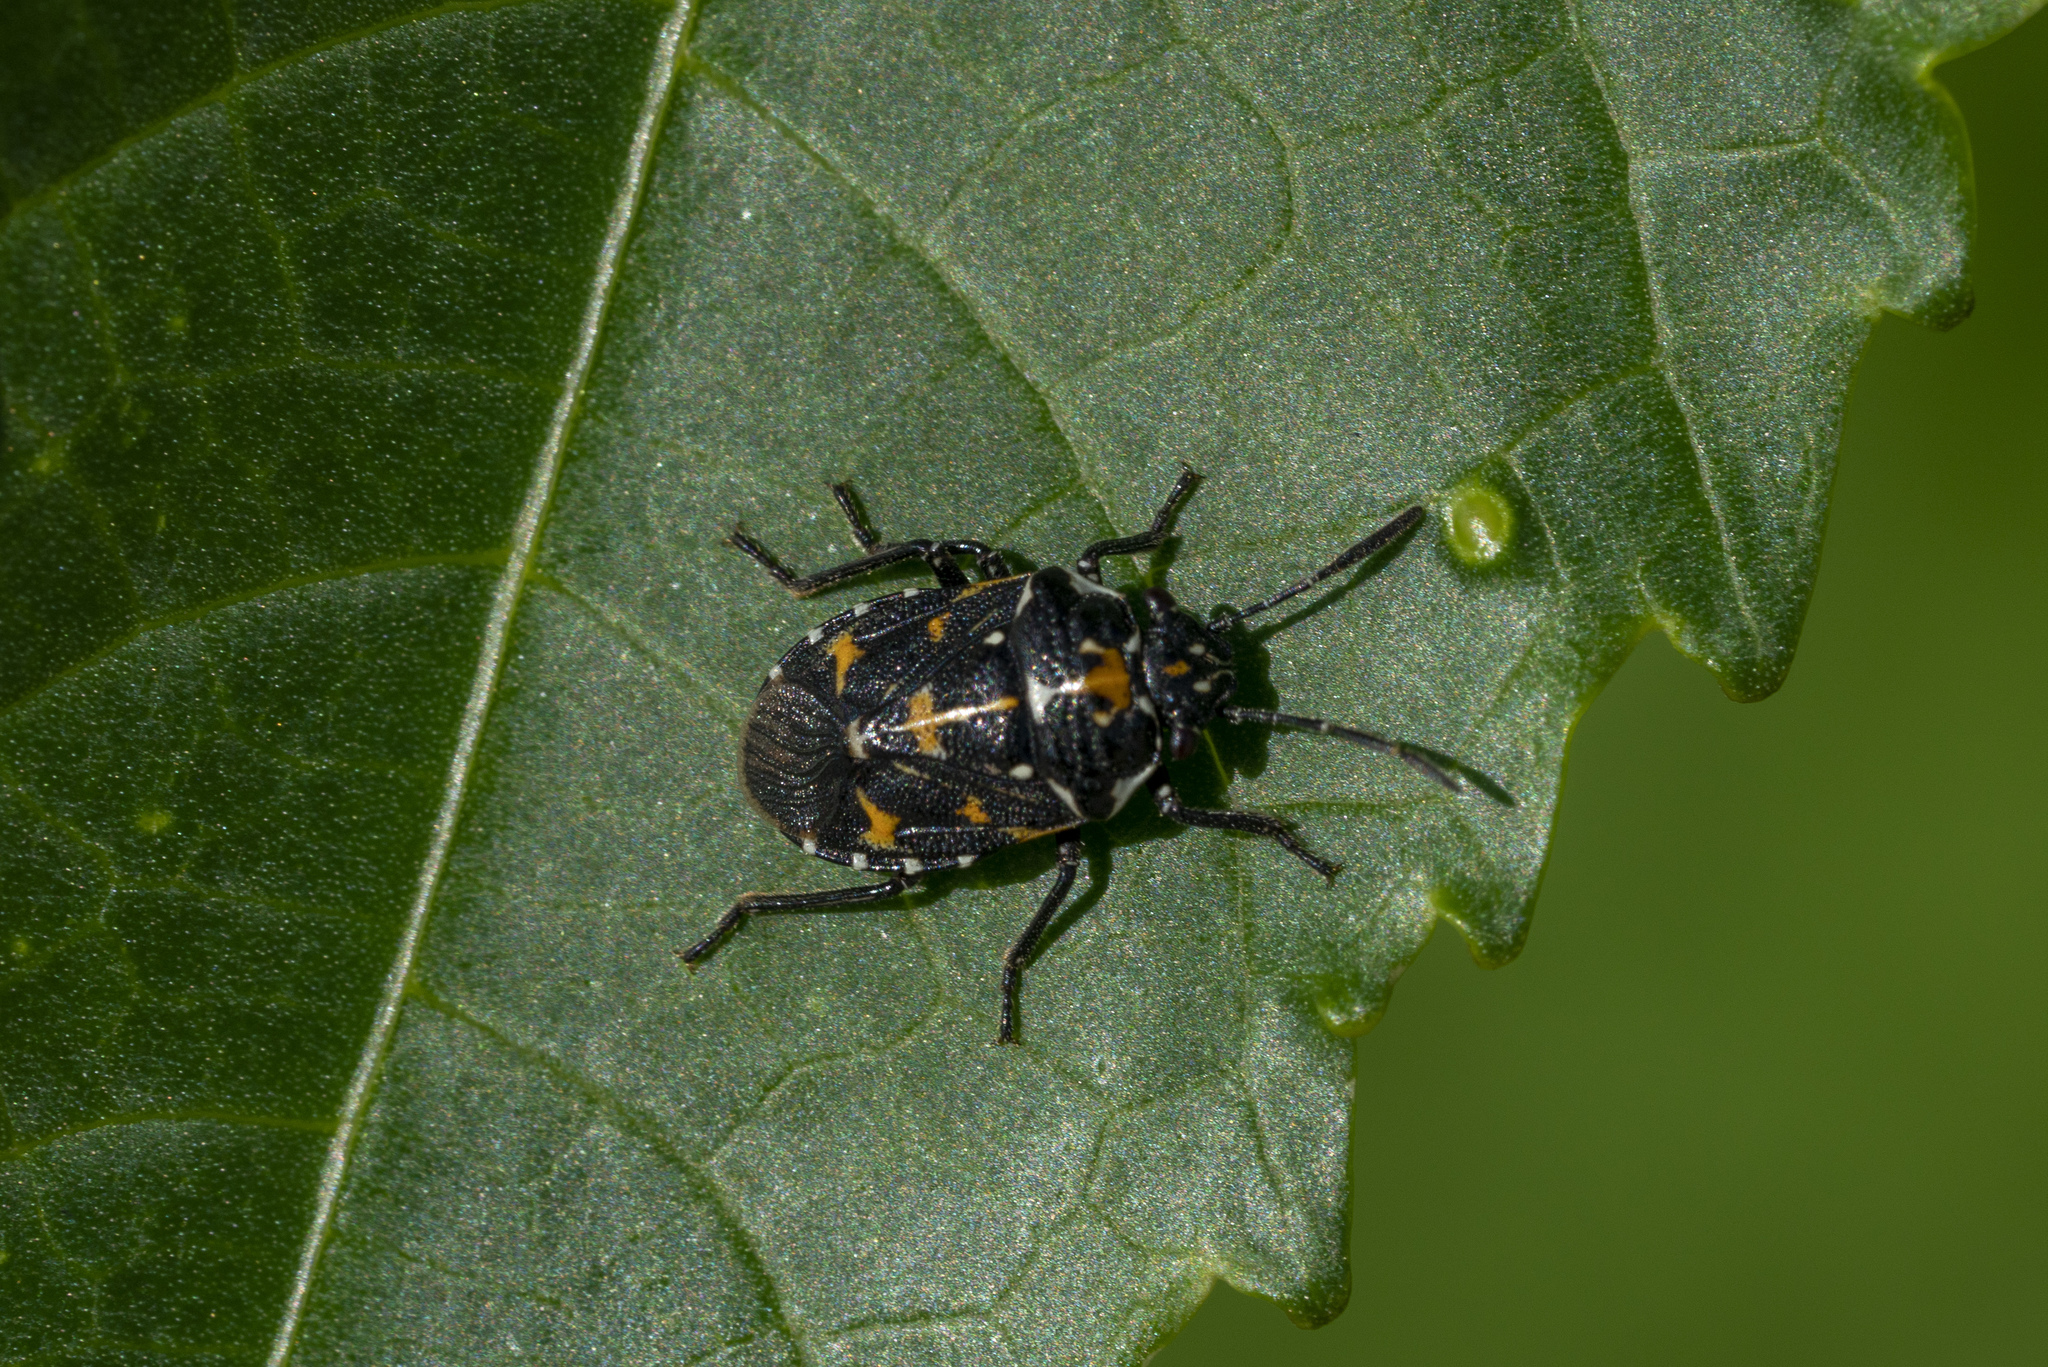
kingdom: Animalia
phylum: Arthropoda
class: Insecta
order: Hemiptera
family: Pentatomidae
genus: Stenozygum
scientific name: Stenozygum coloratum
